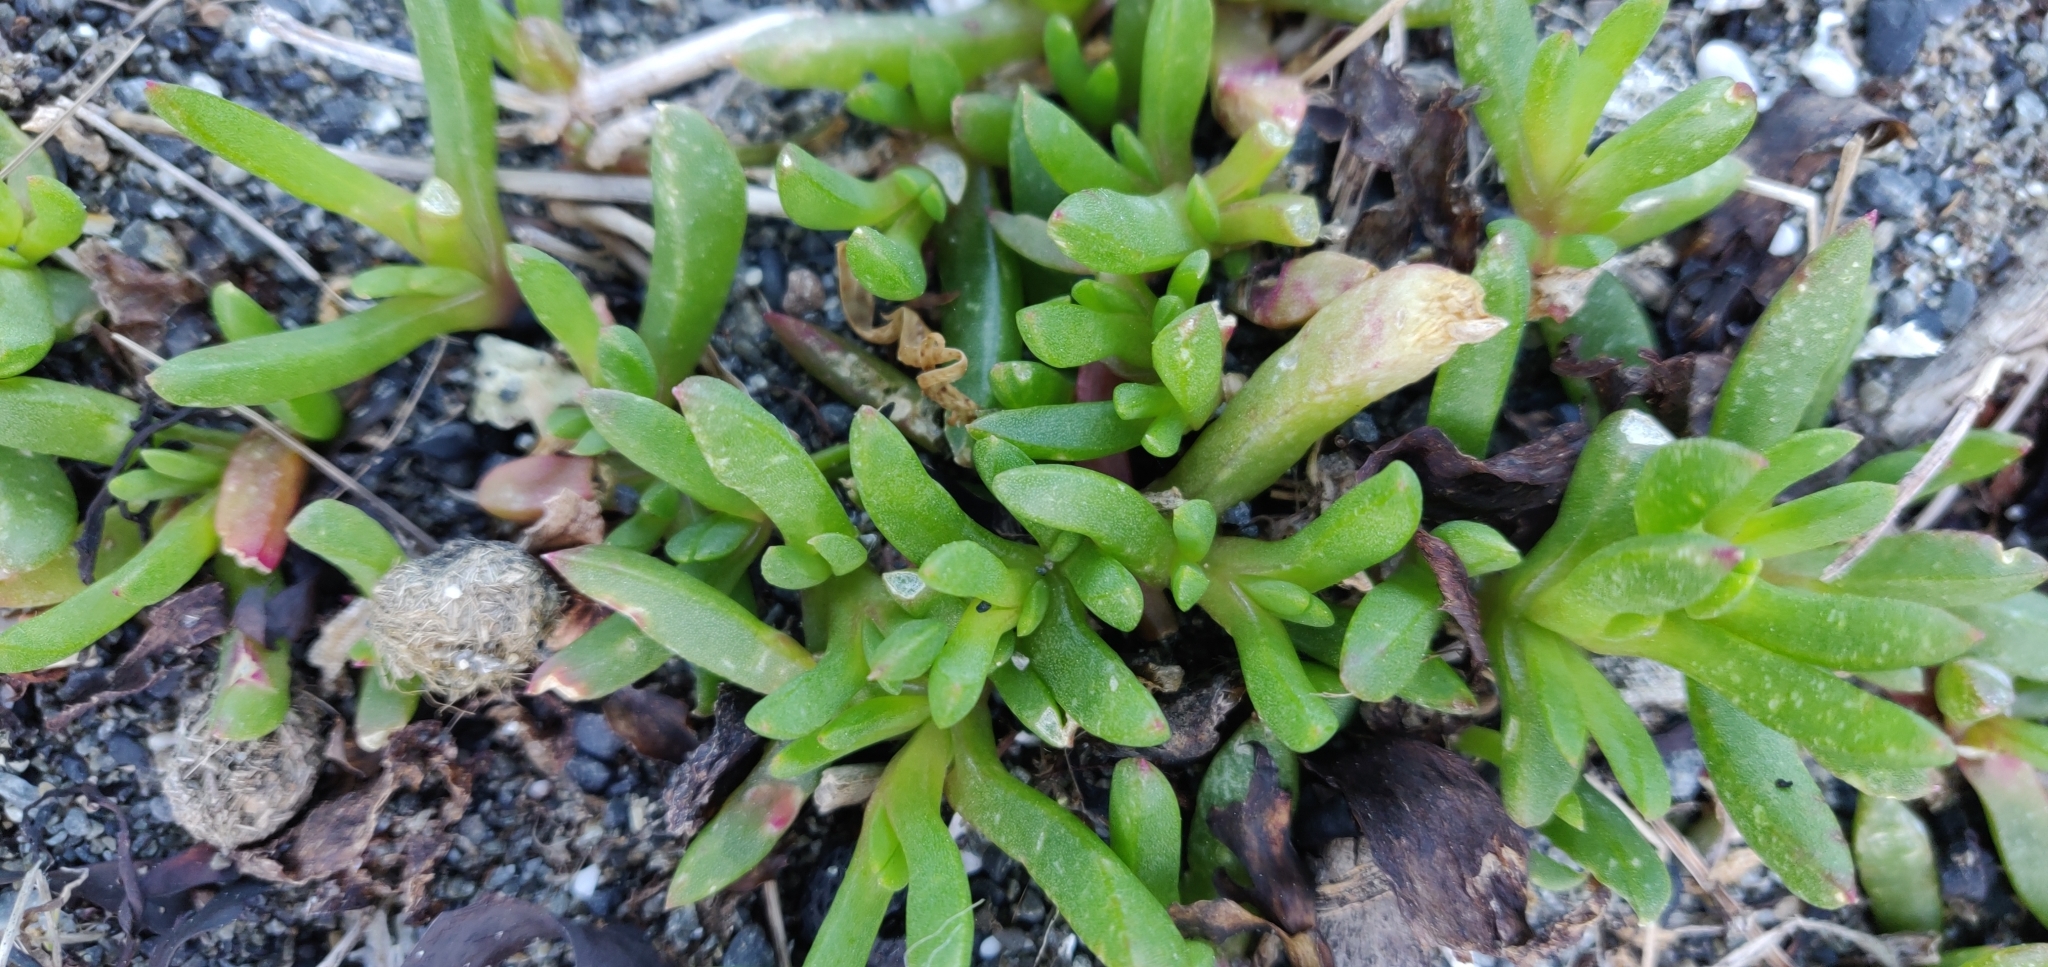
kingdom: Plantae
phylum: Tracheophyta
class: Magnoliopsida
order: Caryophyllales
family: Aizoaceae
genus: Disphyma
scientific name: Disphyma australe
